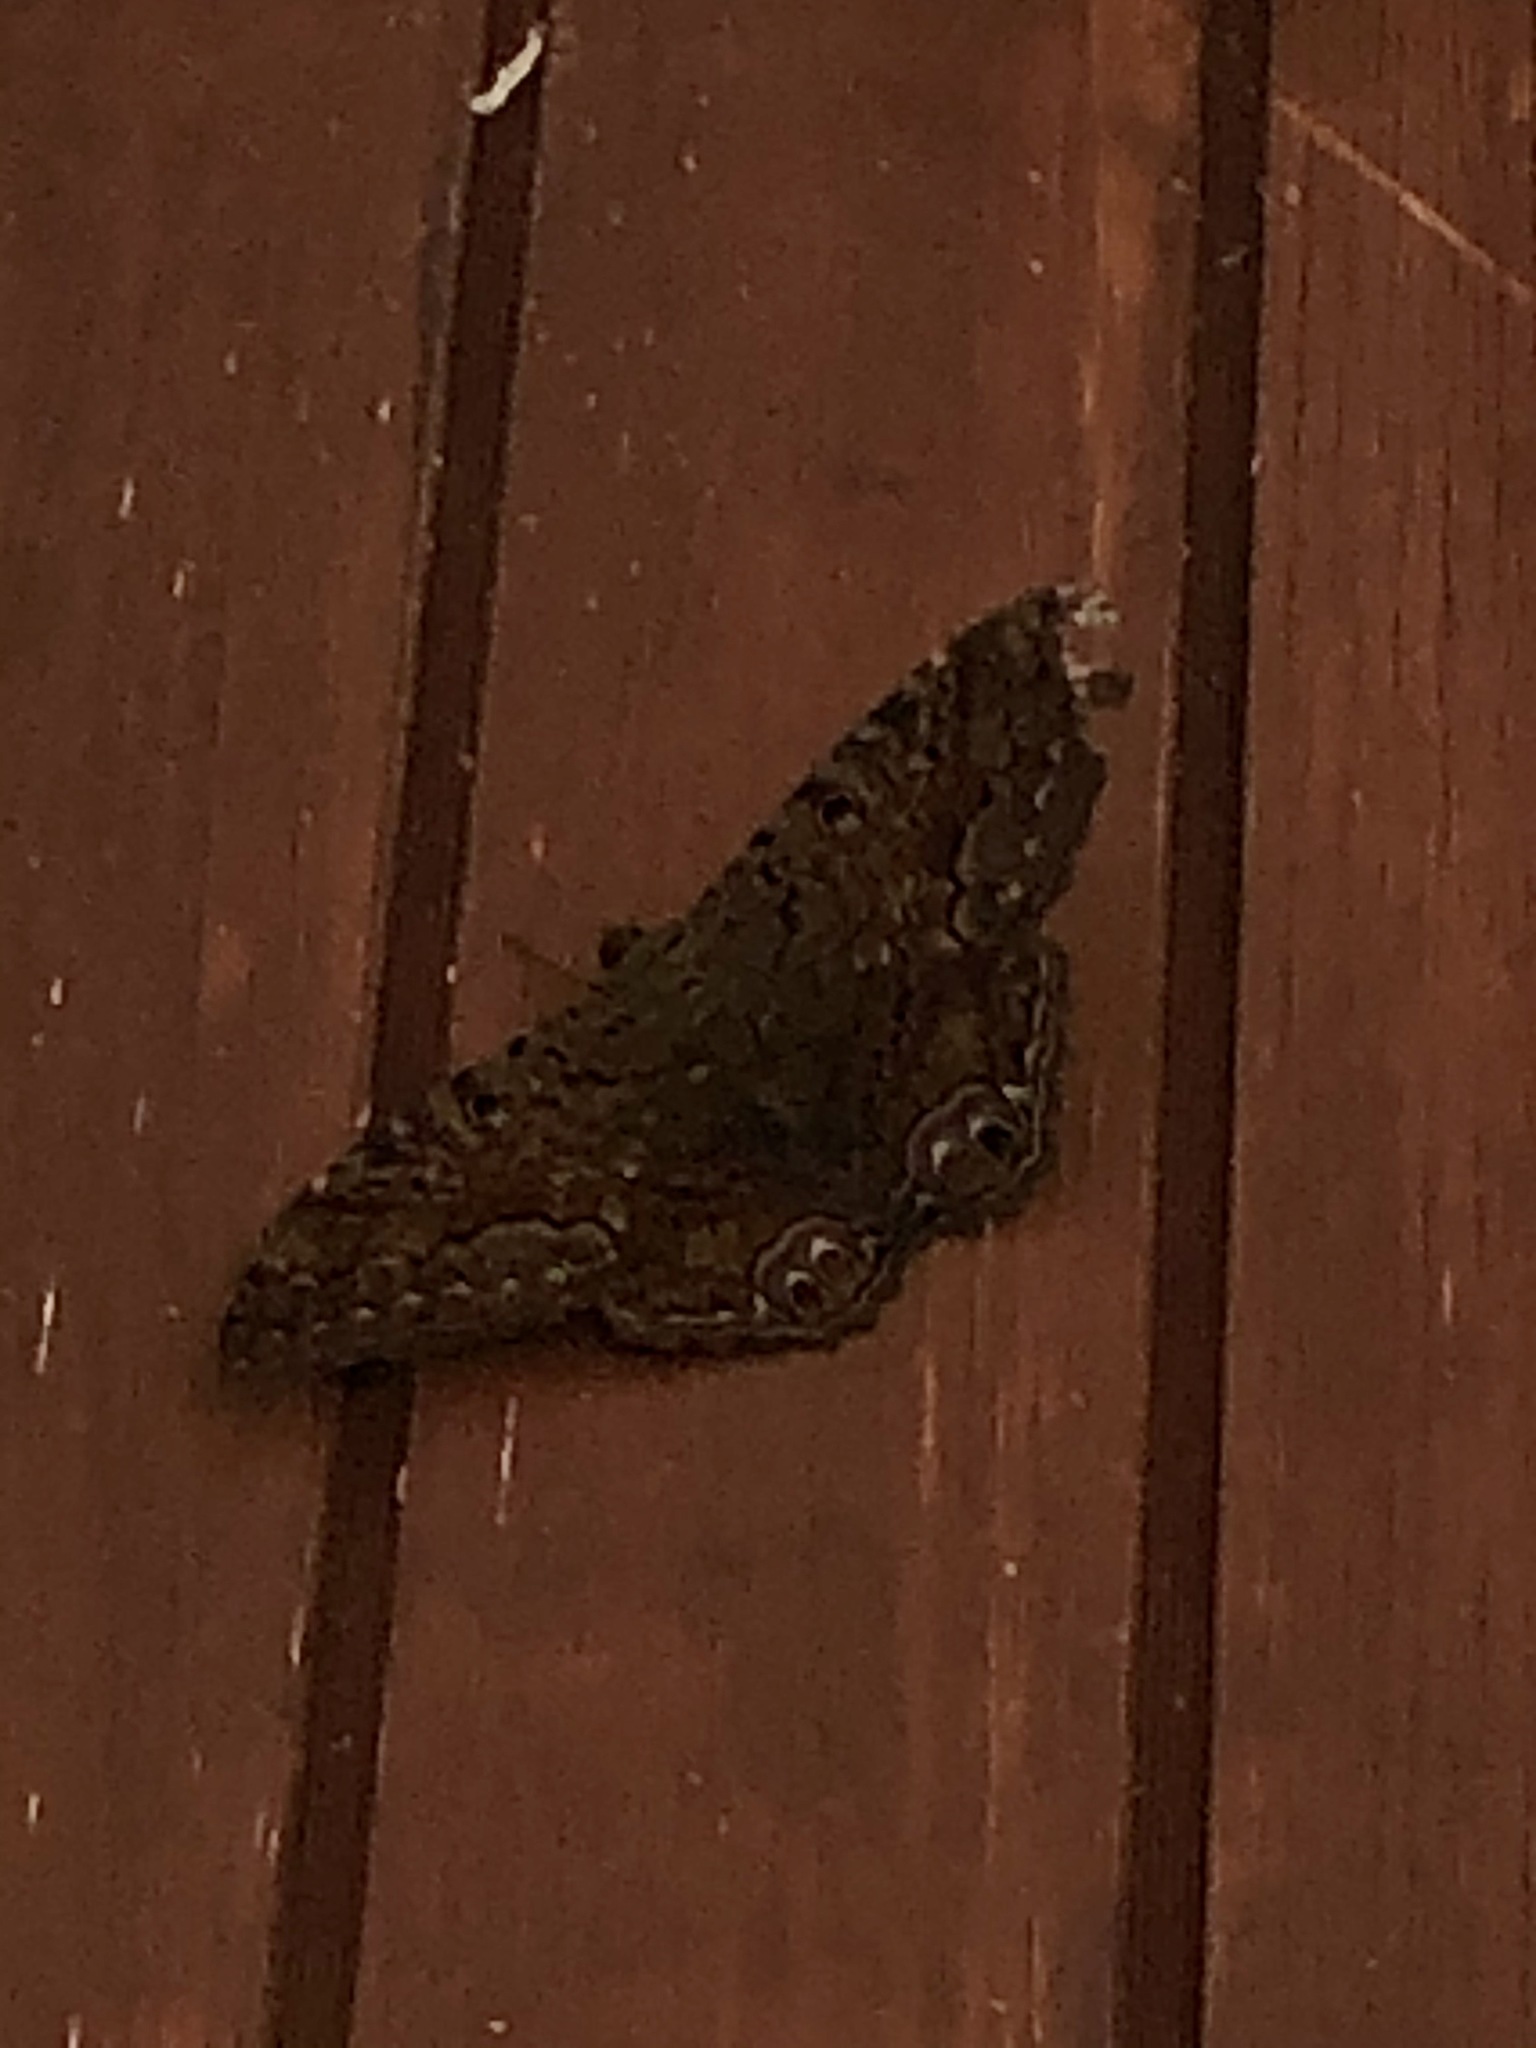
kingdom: Animalia
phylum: Arthropoda
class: Insecta
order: Lepidoptera
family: Erebidae
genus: Ascalapha
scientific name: Ascalapha odorata
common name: Black witch
